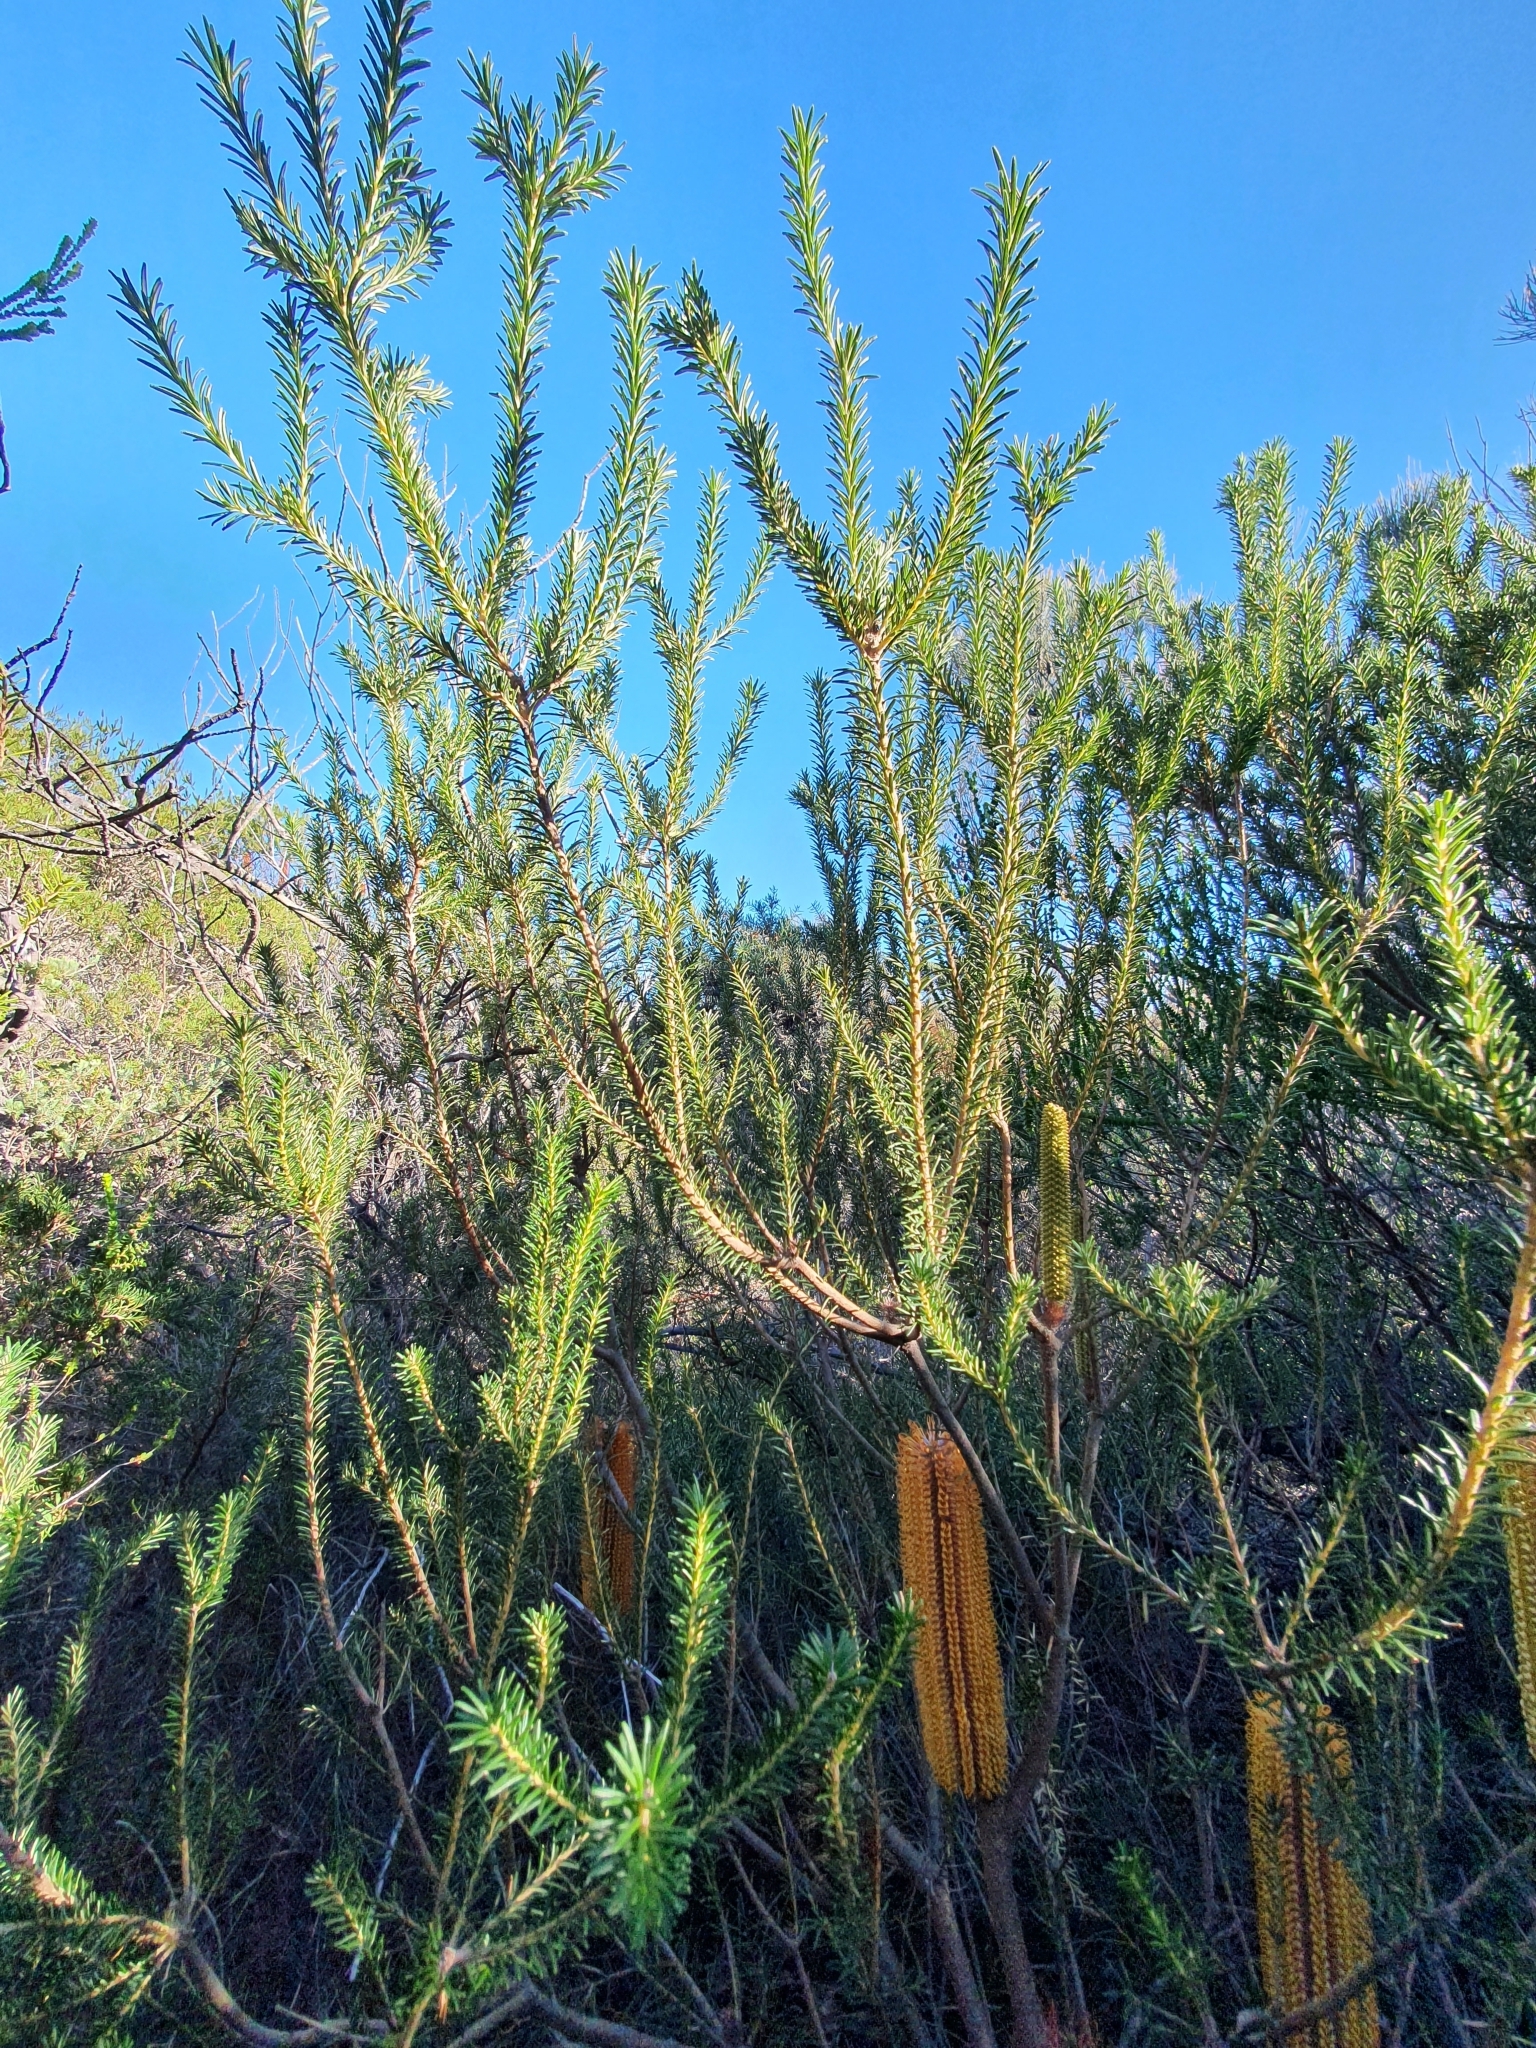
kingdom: Plantae
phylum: Tracheophyta
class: Magnoliopsida
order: Proteales
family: Proteaceae
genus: Banksia
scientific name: Banksia ericifolia
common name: Heath-leaf banksia
